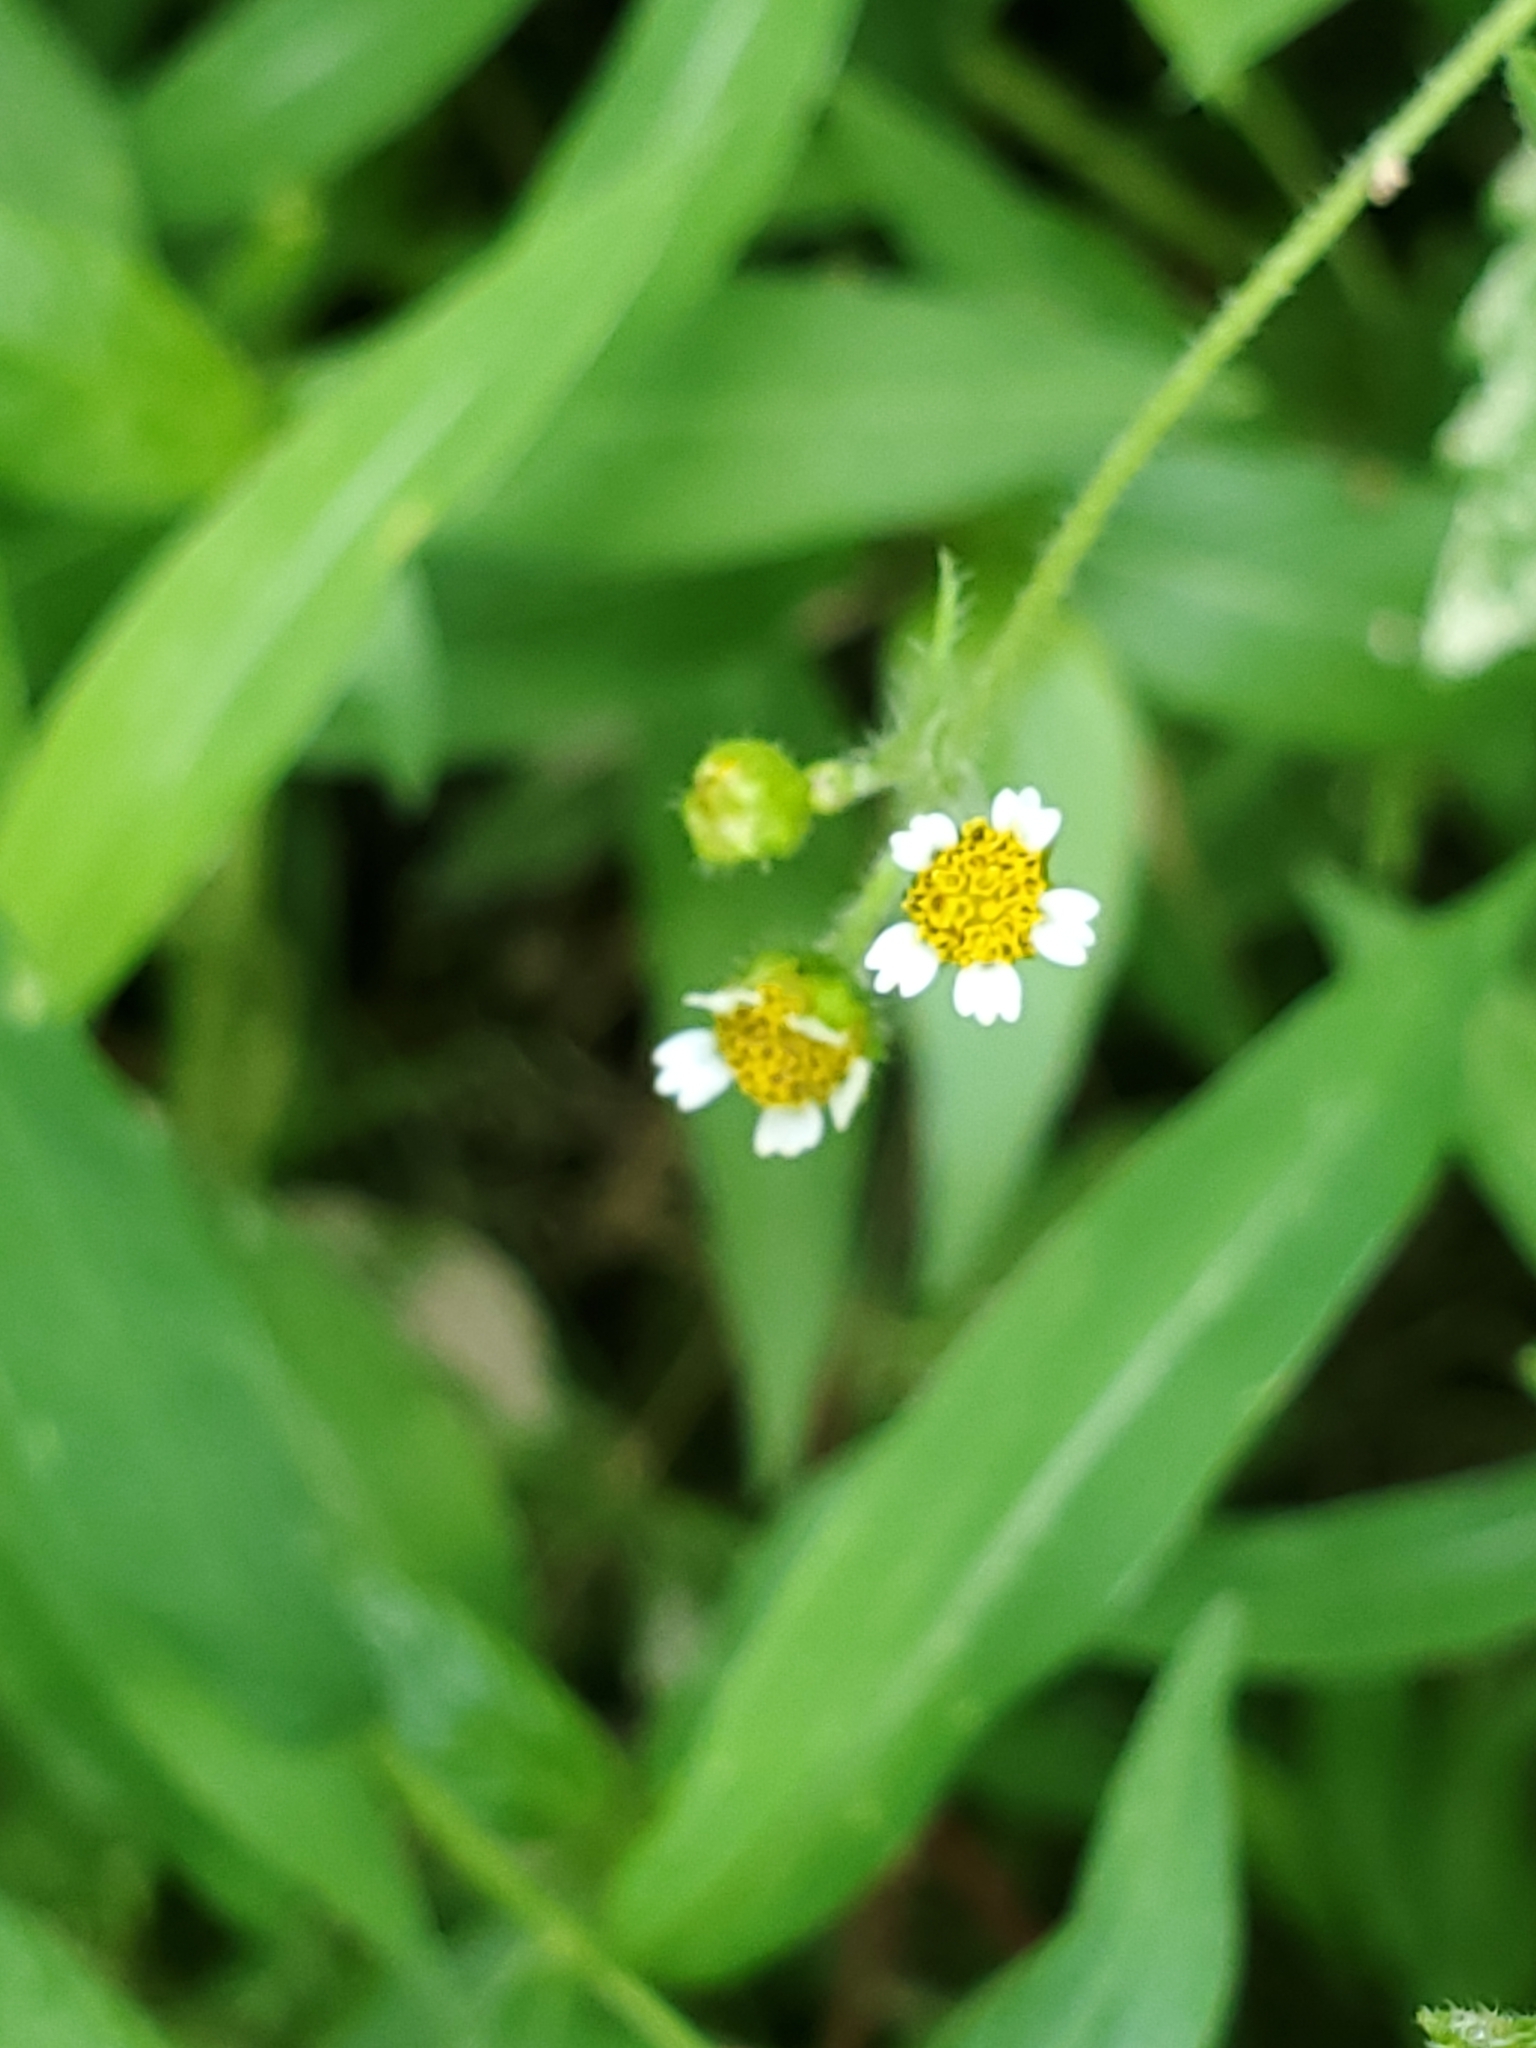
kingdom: Plantae
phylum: Tracheophyta
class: Magnoliopsida
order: Asterales
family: Asteraceae
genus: Galinsoga
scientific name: Galinsoga quadriradiata
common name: Shaggy soldier
